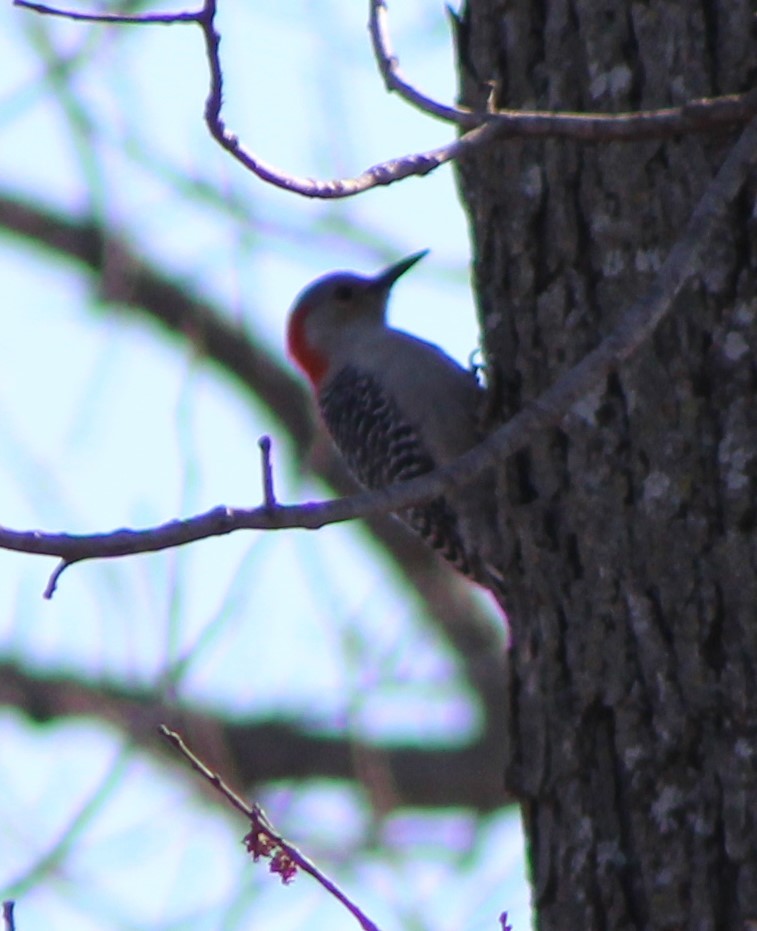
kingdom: Animalia
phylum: Chordata
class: Aves
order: Piciformes
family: Picidae
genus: Melanerpes
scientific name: Melanerpes carolinus
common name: Red-bellied woodpecker
